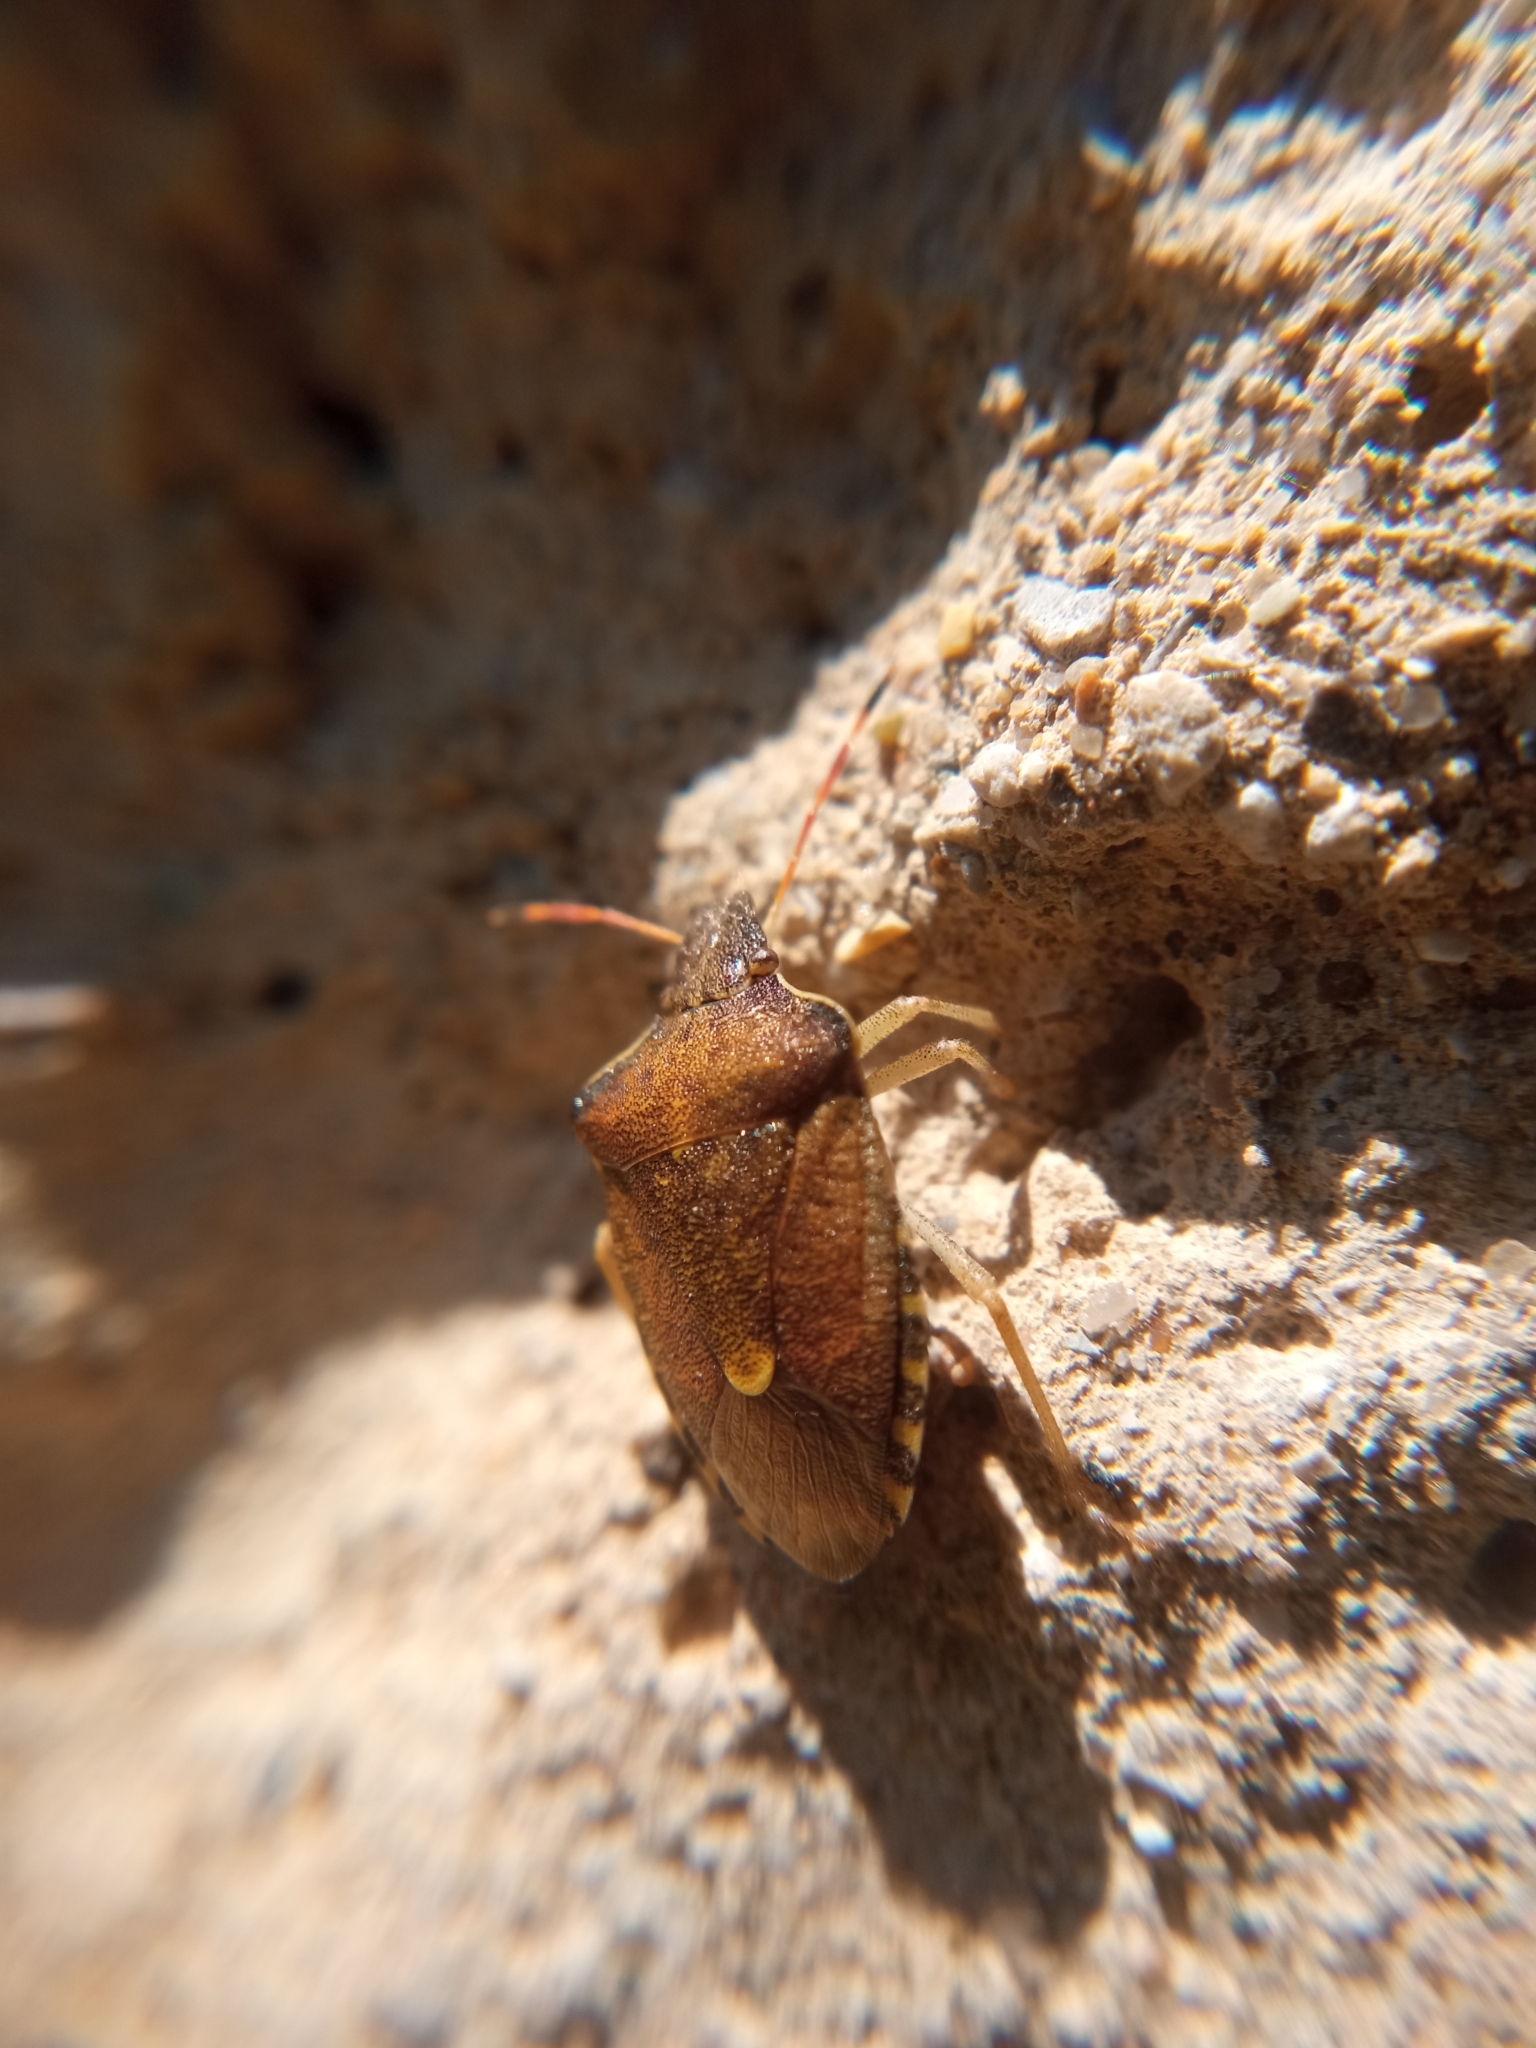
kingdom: Animalia
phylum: Arthropoda
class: Insecta
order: Hemiptera
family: Pentatomidae
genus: Holcostethus
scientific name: Holcostethus strictus
